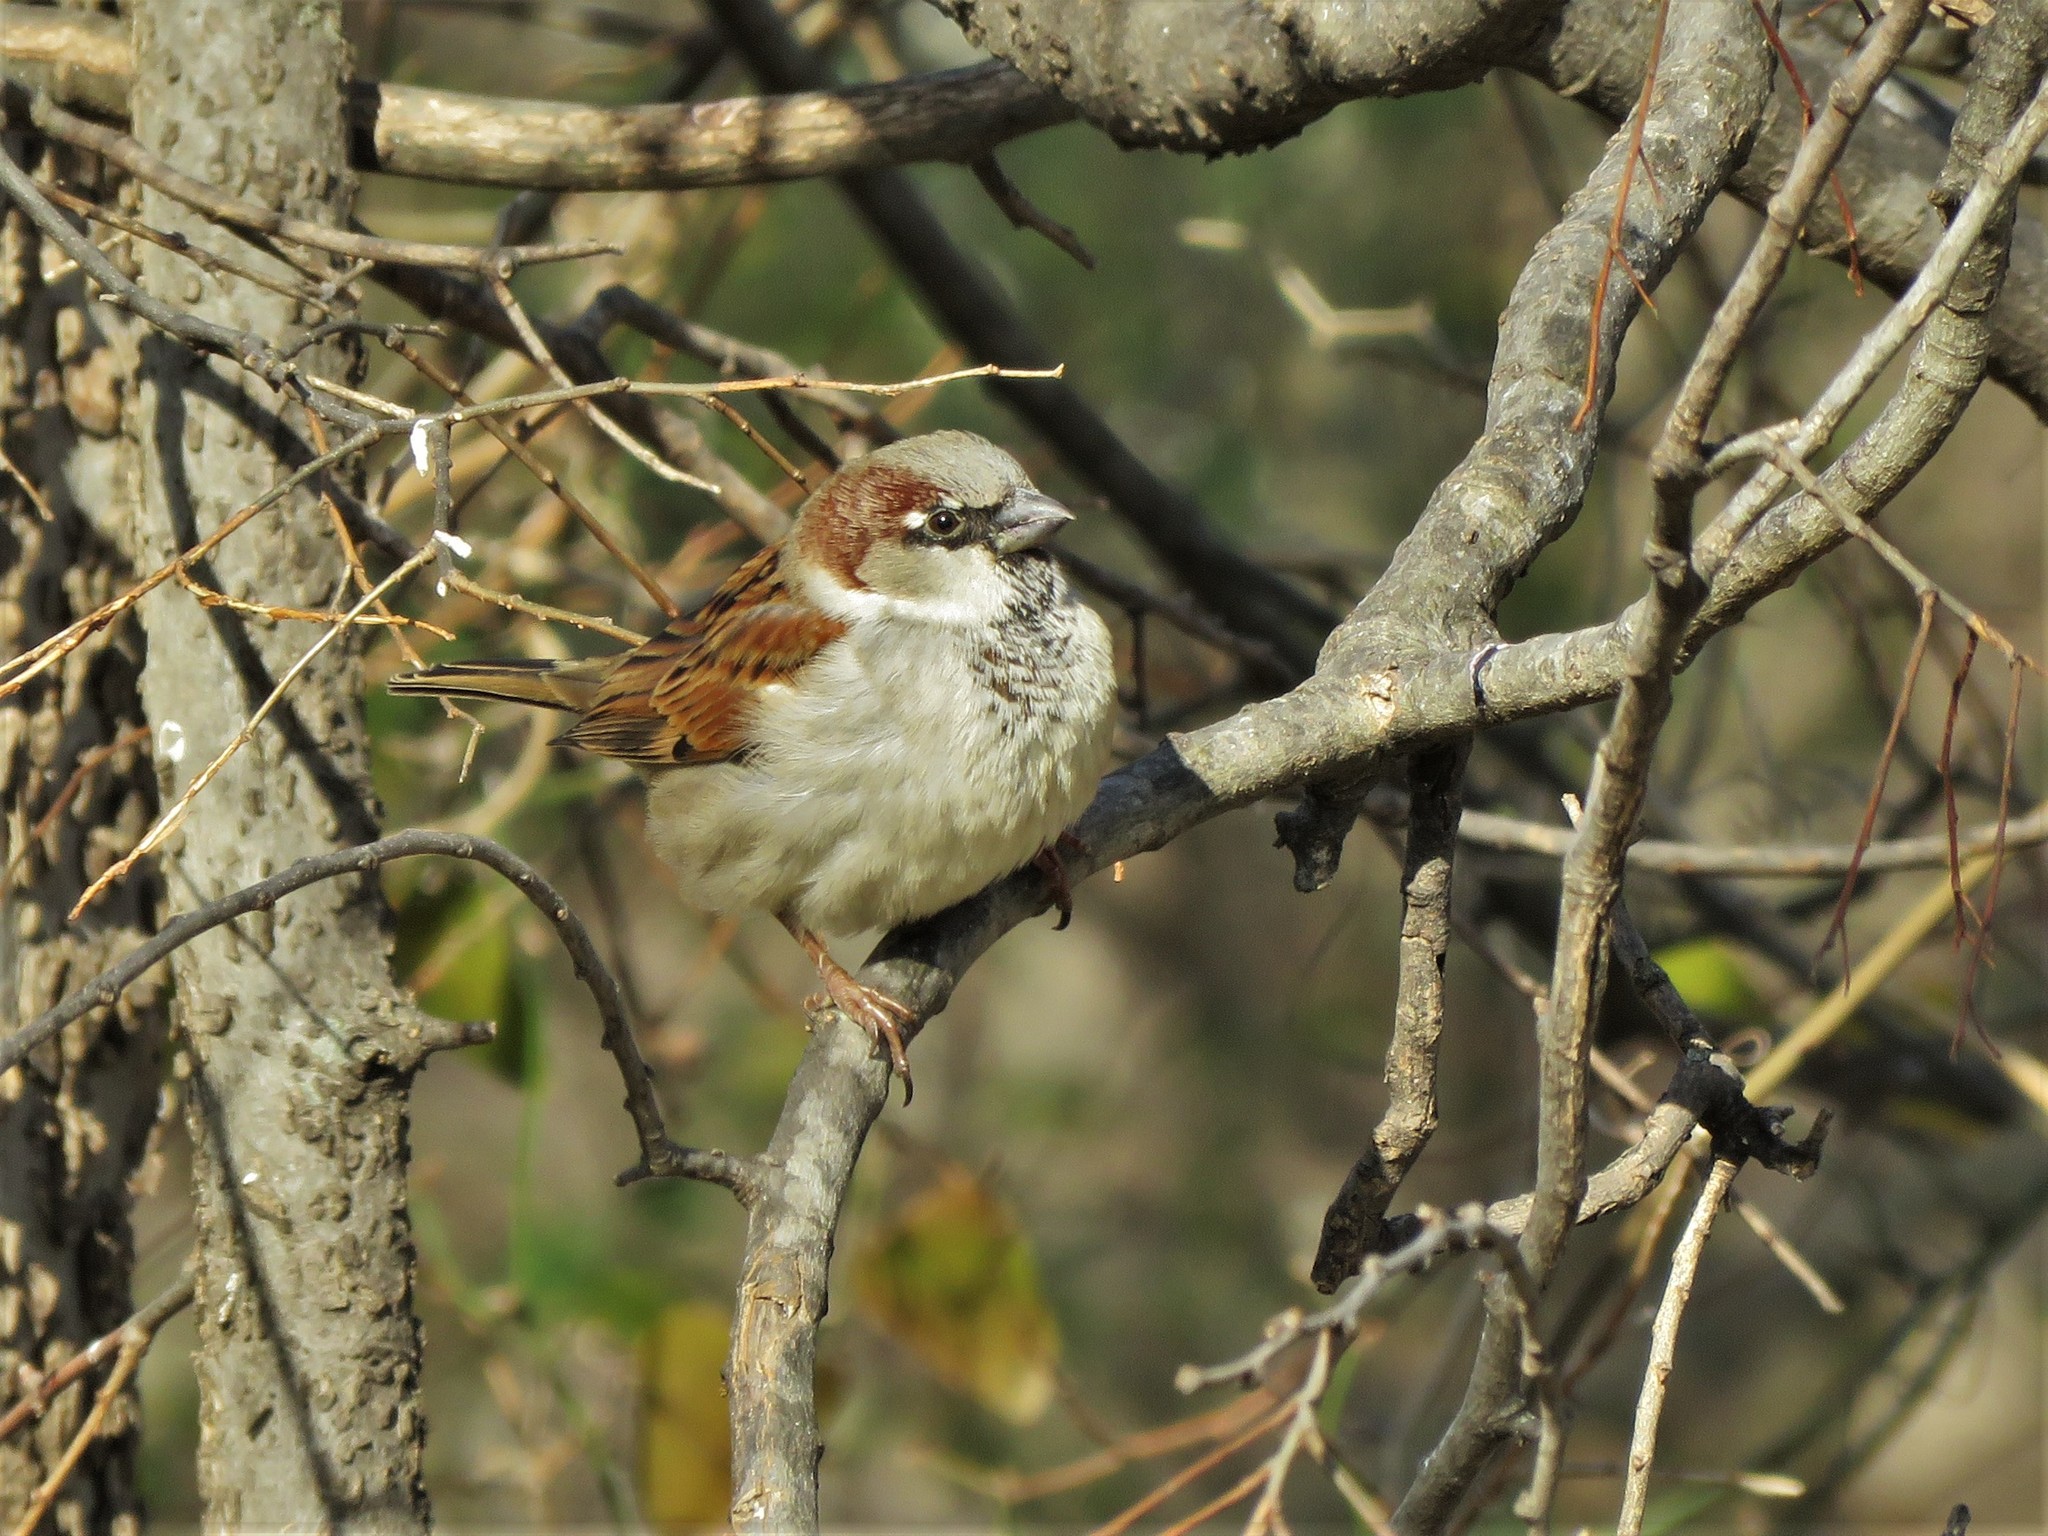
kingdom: Animalia
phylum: Chordata
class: Aves
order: Passeriformes
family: Passeridae
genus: Passer
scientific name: Passer domesticus
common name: House sparrow
